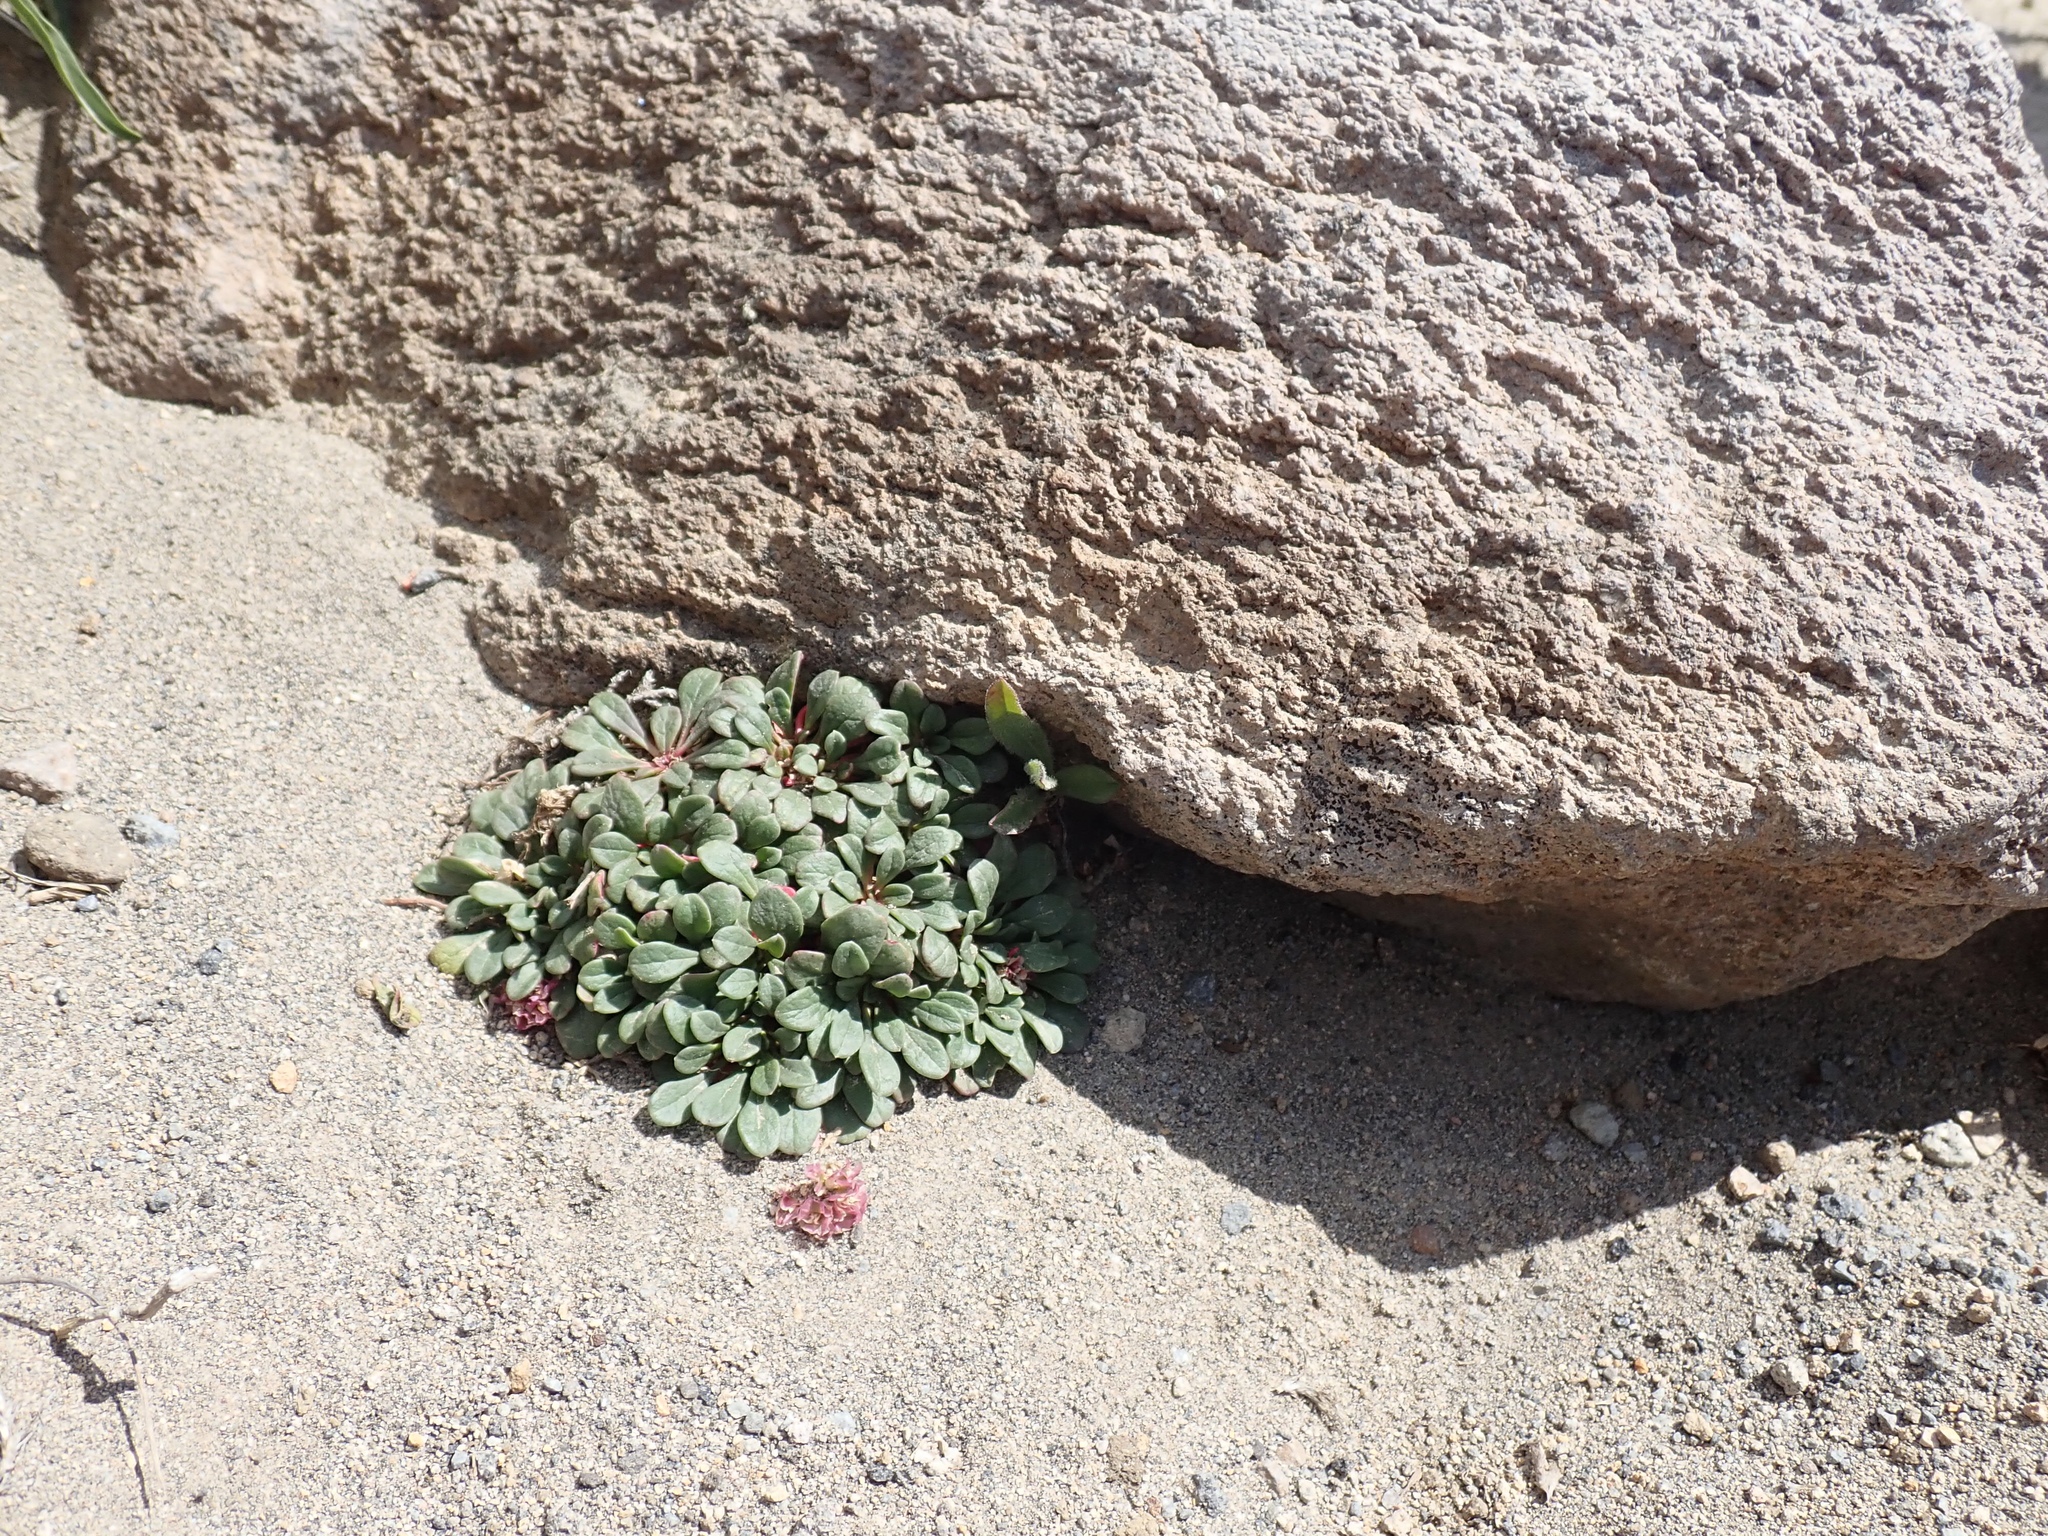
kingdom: Plantae
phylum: Tracheophyta
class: Magnoliopsida
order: Caryophyllales
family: Montiaceae
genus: Calyptridium
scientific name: Calyptridium umbellatum
